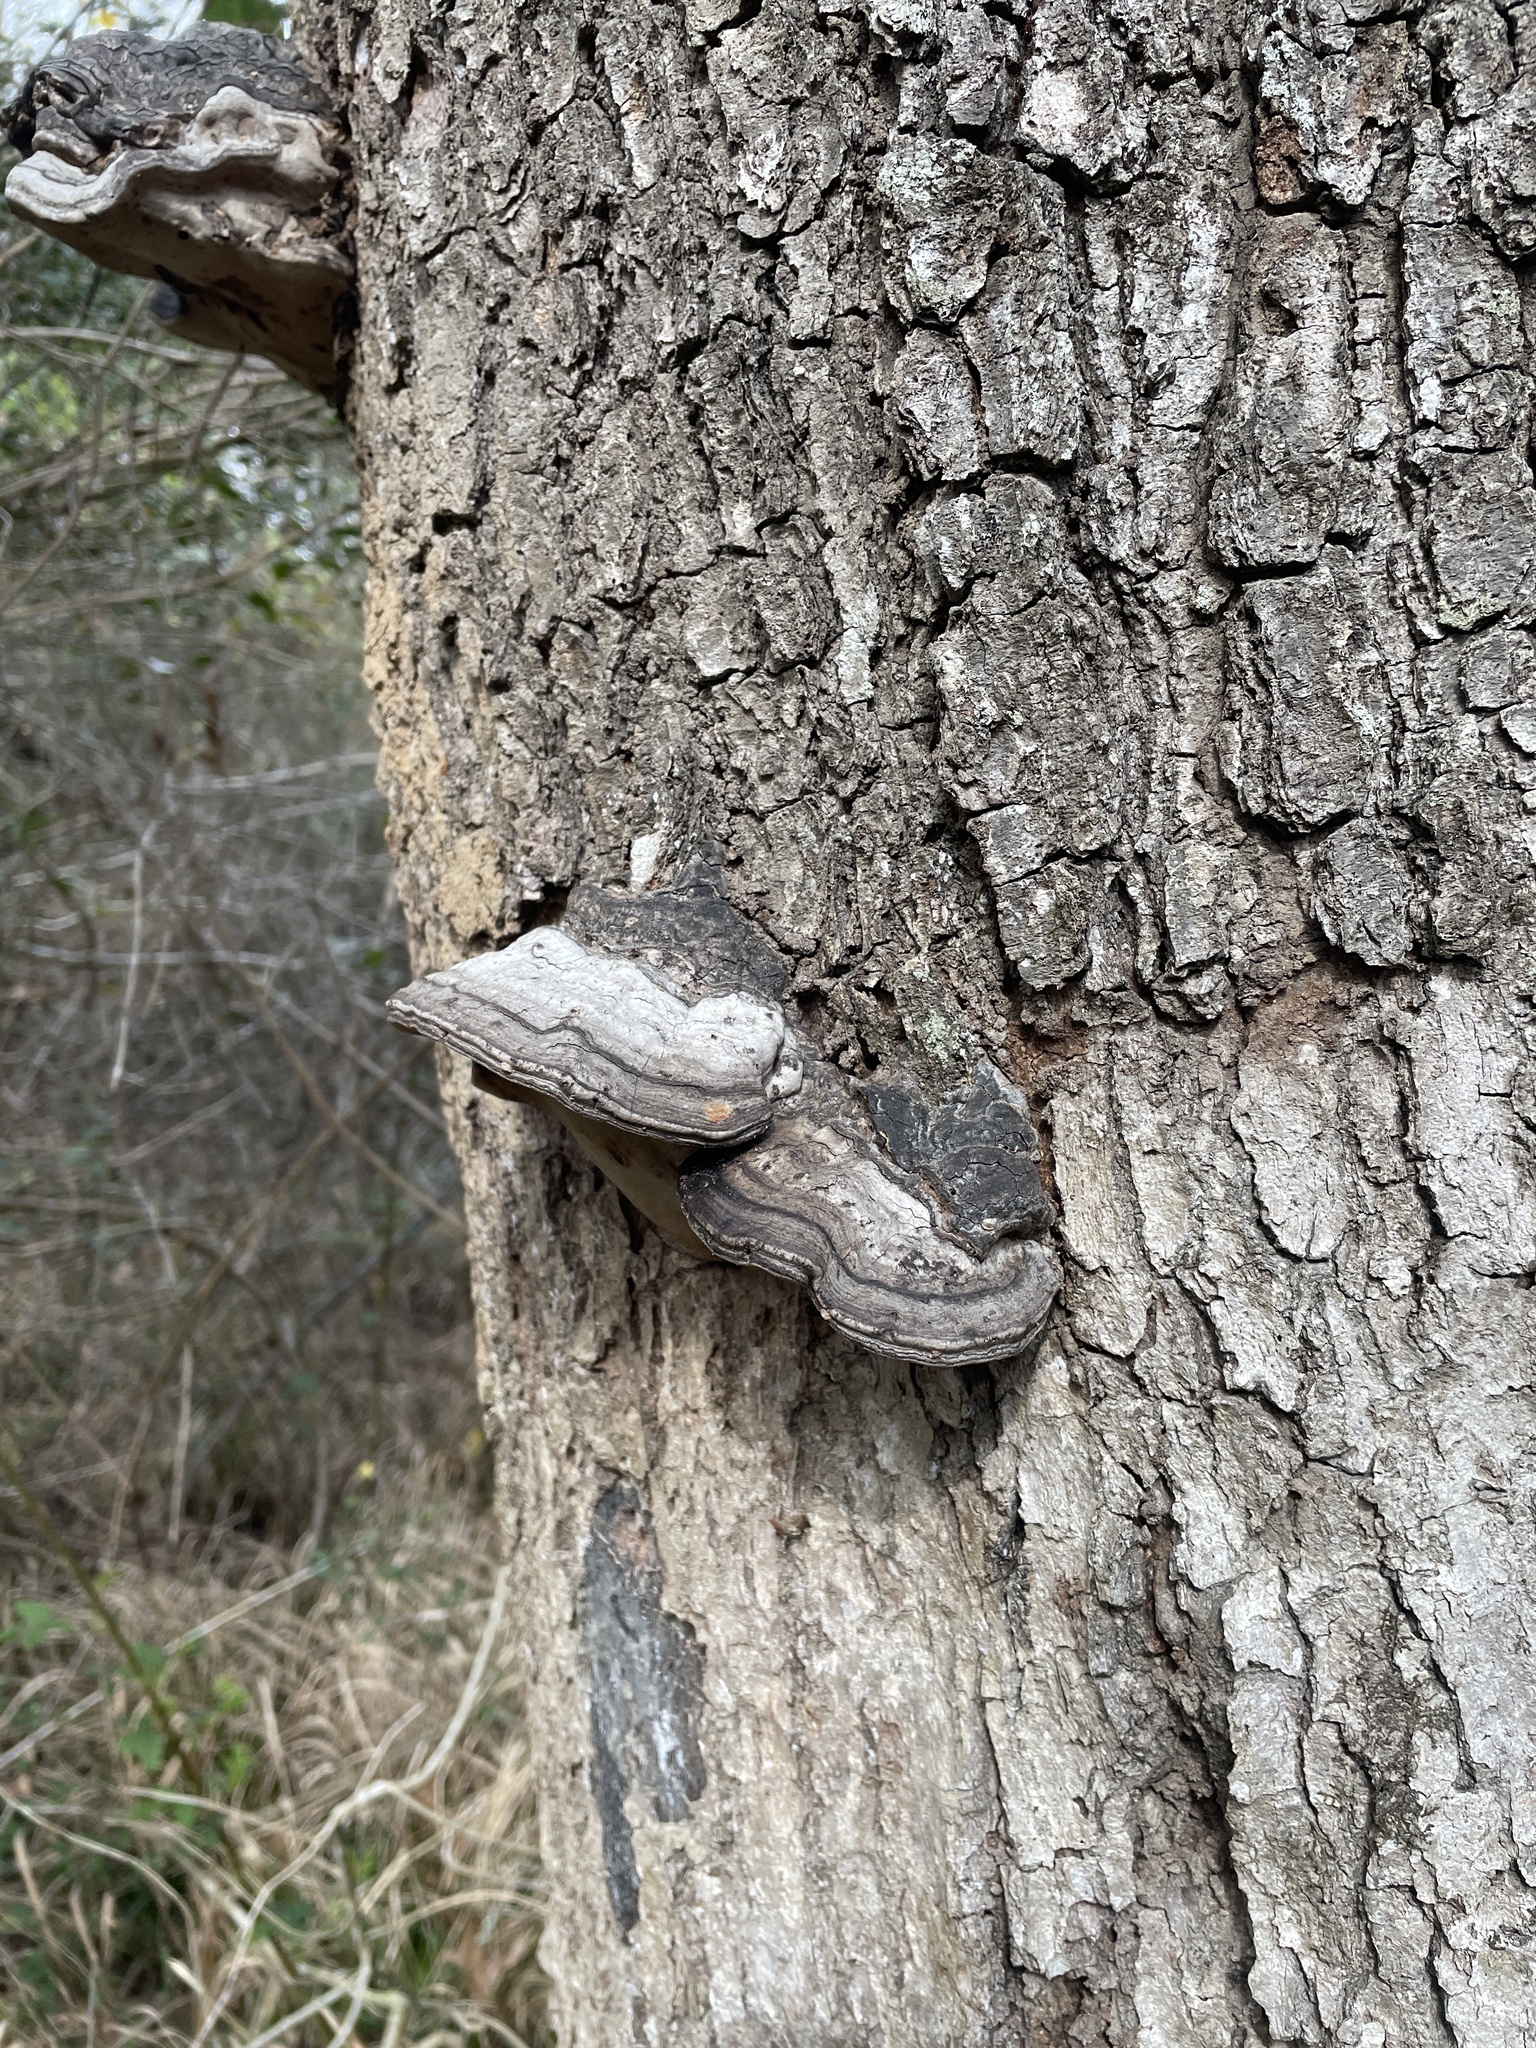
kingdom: Fungi
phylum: Basidiomycota
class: Agaricomycetes
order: Polyporales
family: Polyporaceae
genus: Fomes
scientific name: Fomes fasciatus
